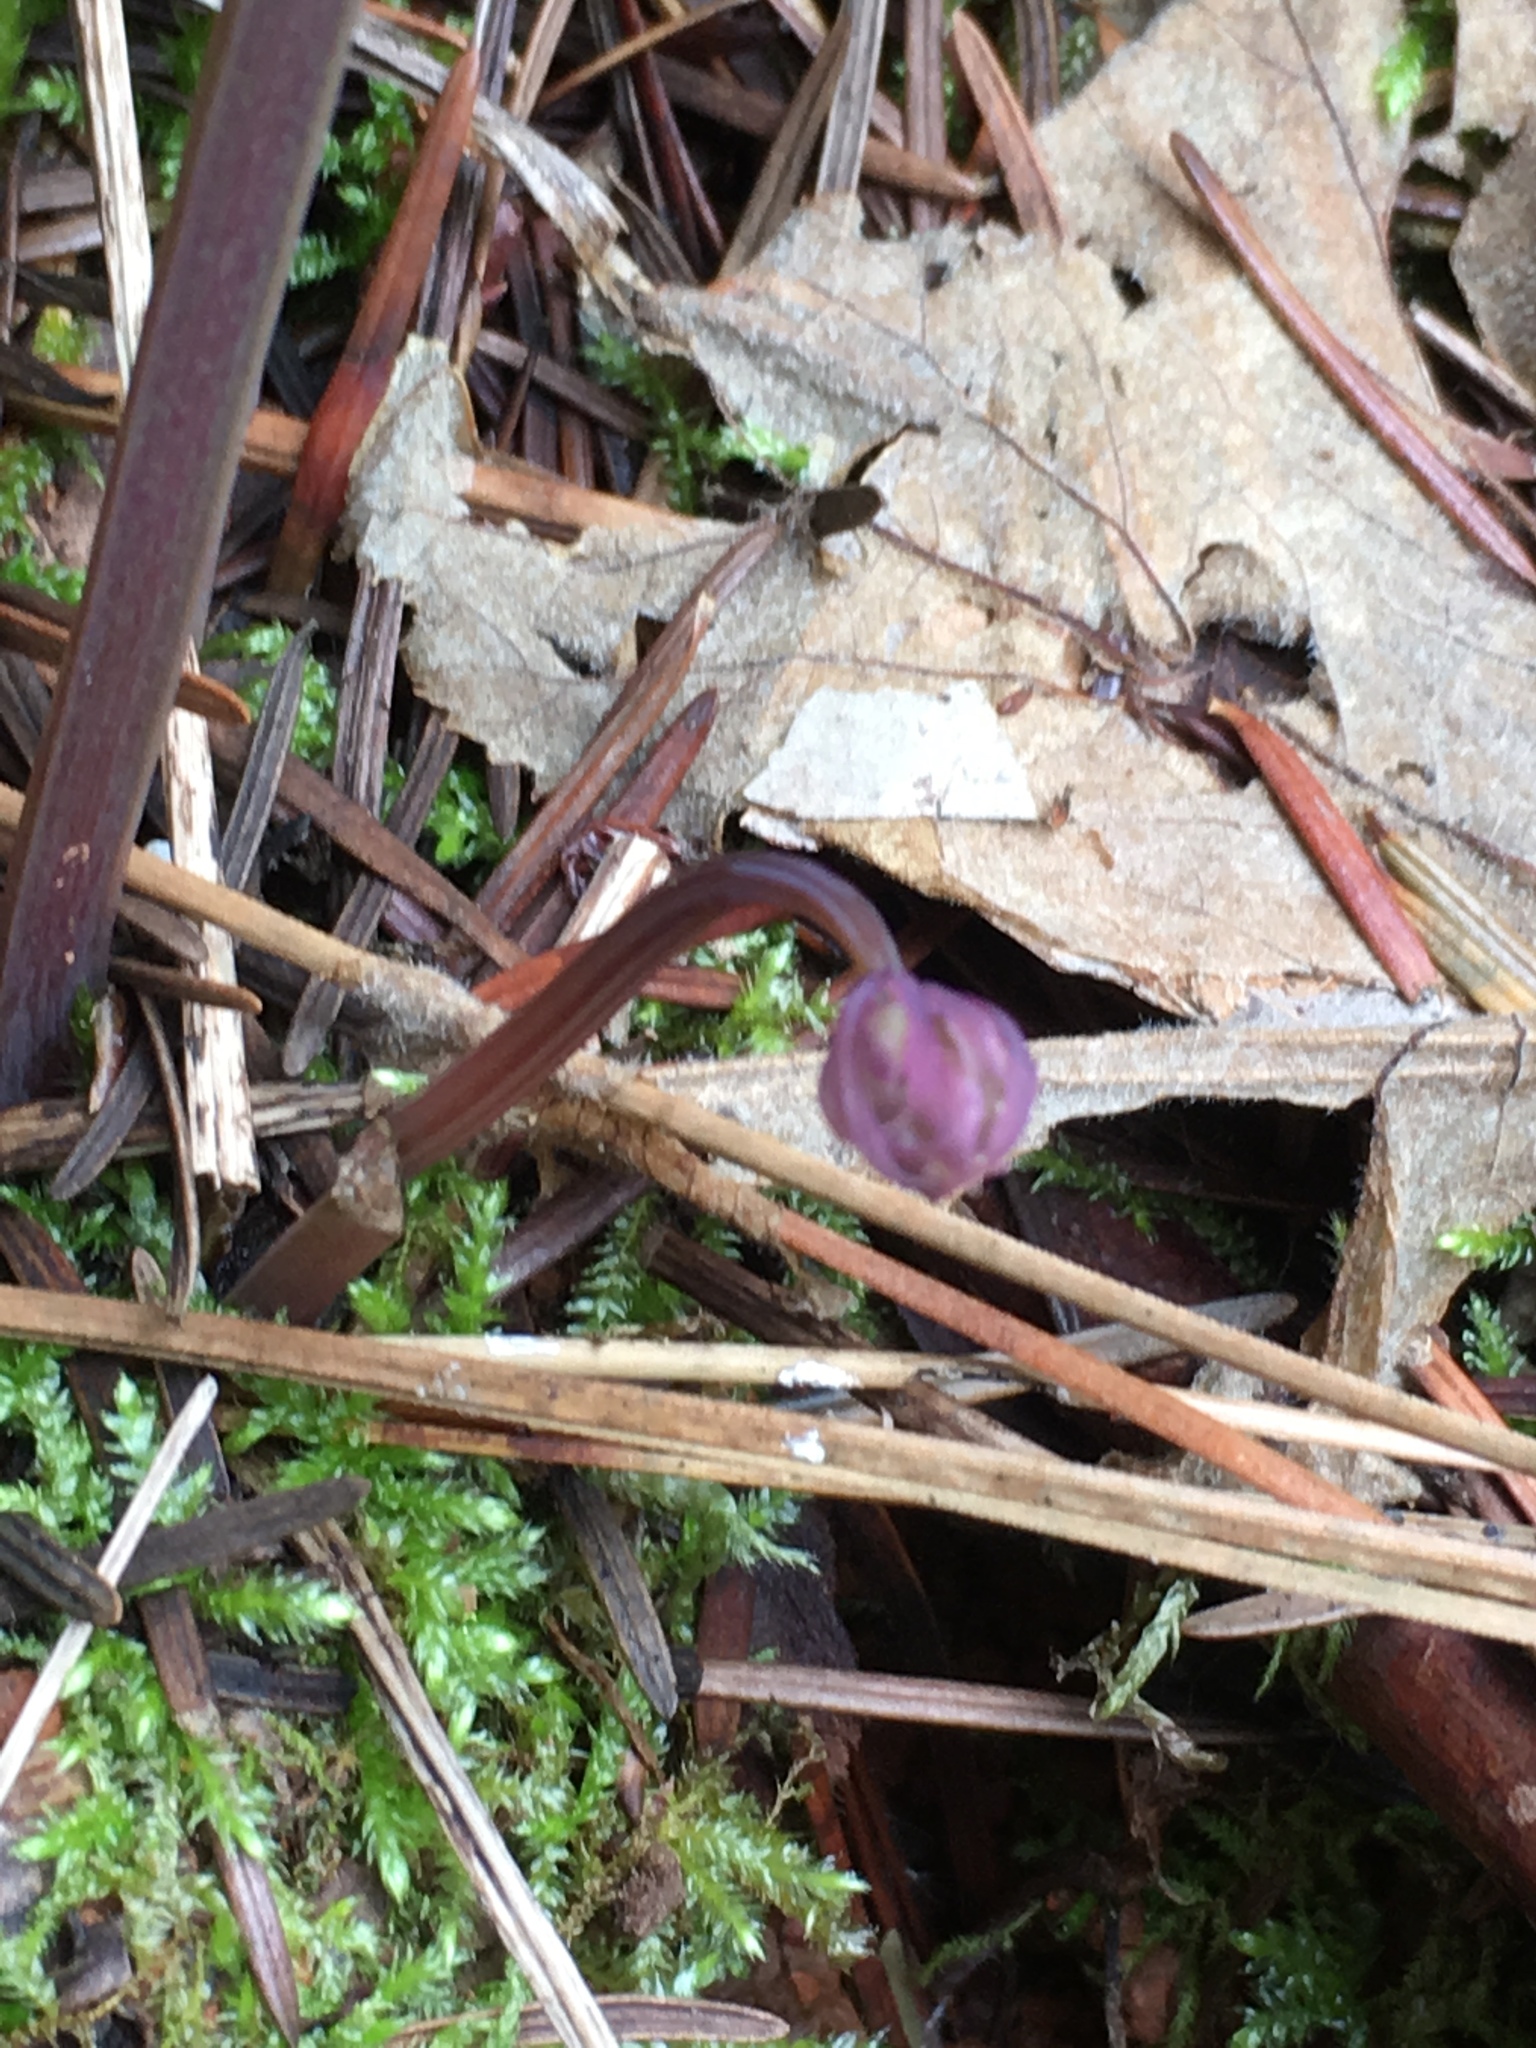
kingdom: Plantae
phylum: Tracheophyta
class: Magnoliopsida
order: Ranunculales
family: Papaveraceae
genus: Dicentra
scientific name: Dicentra formosa
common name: Bleeding-heart
